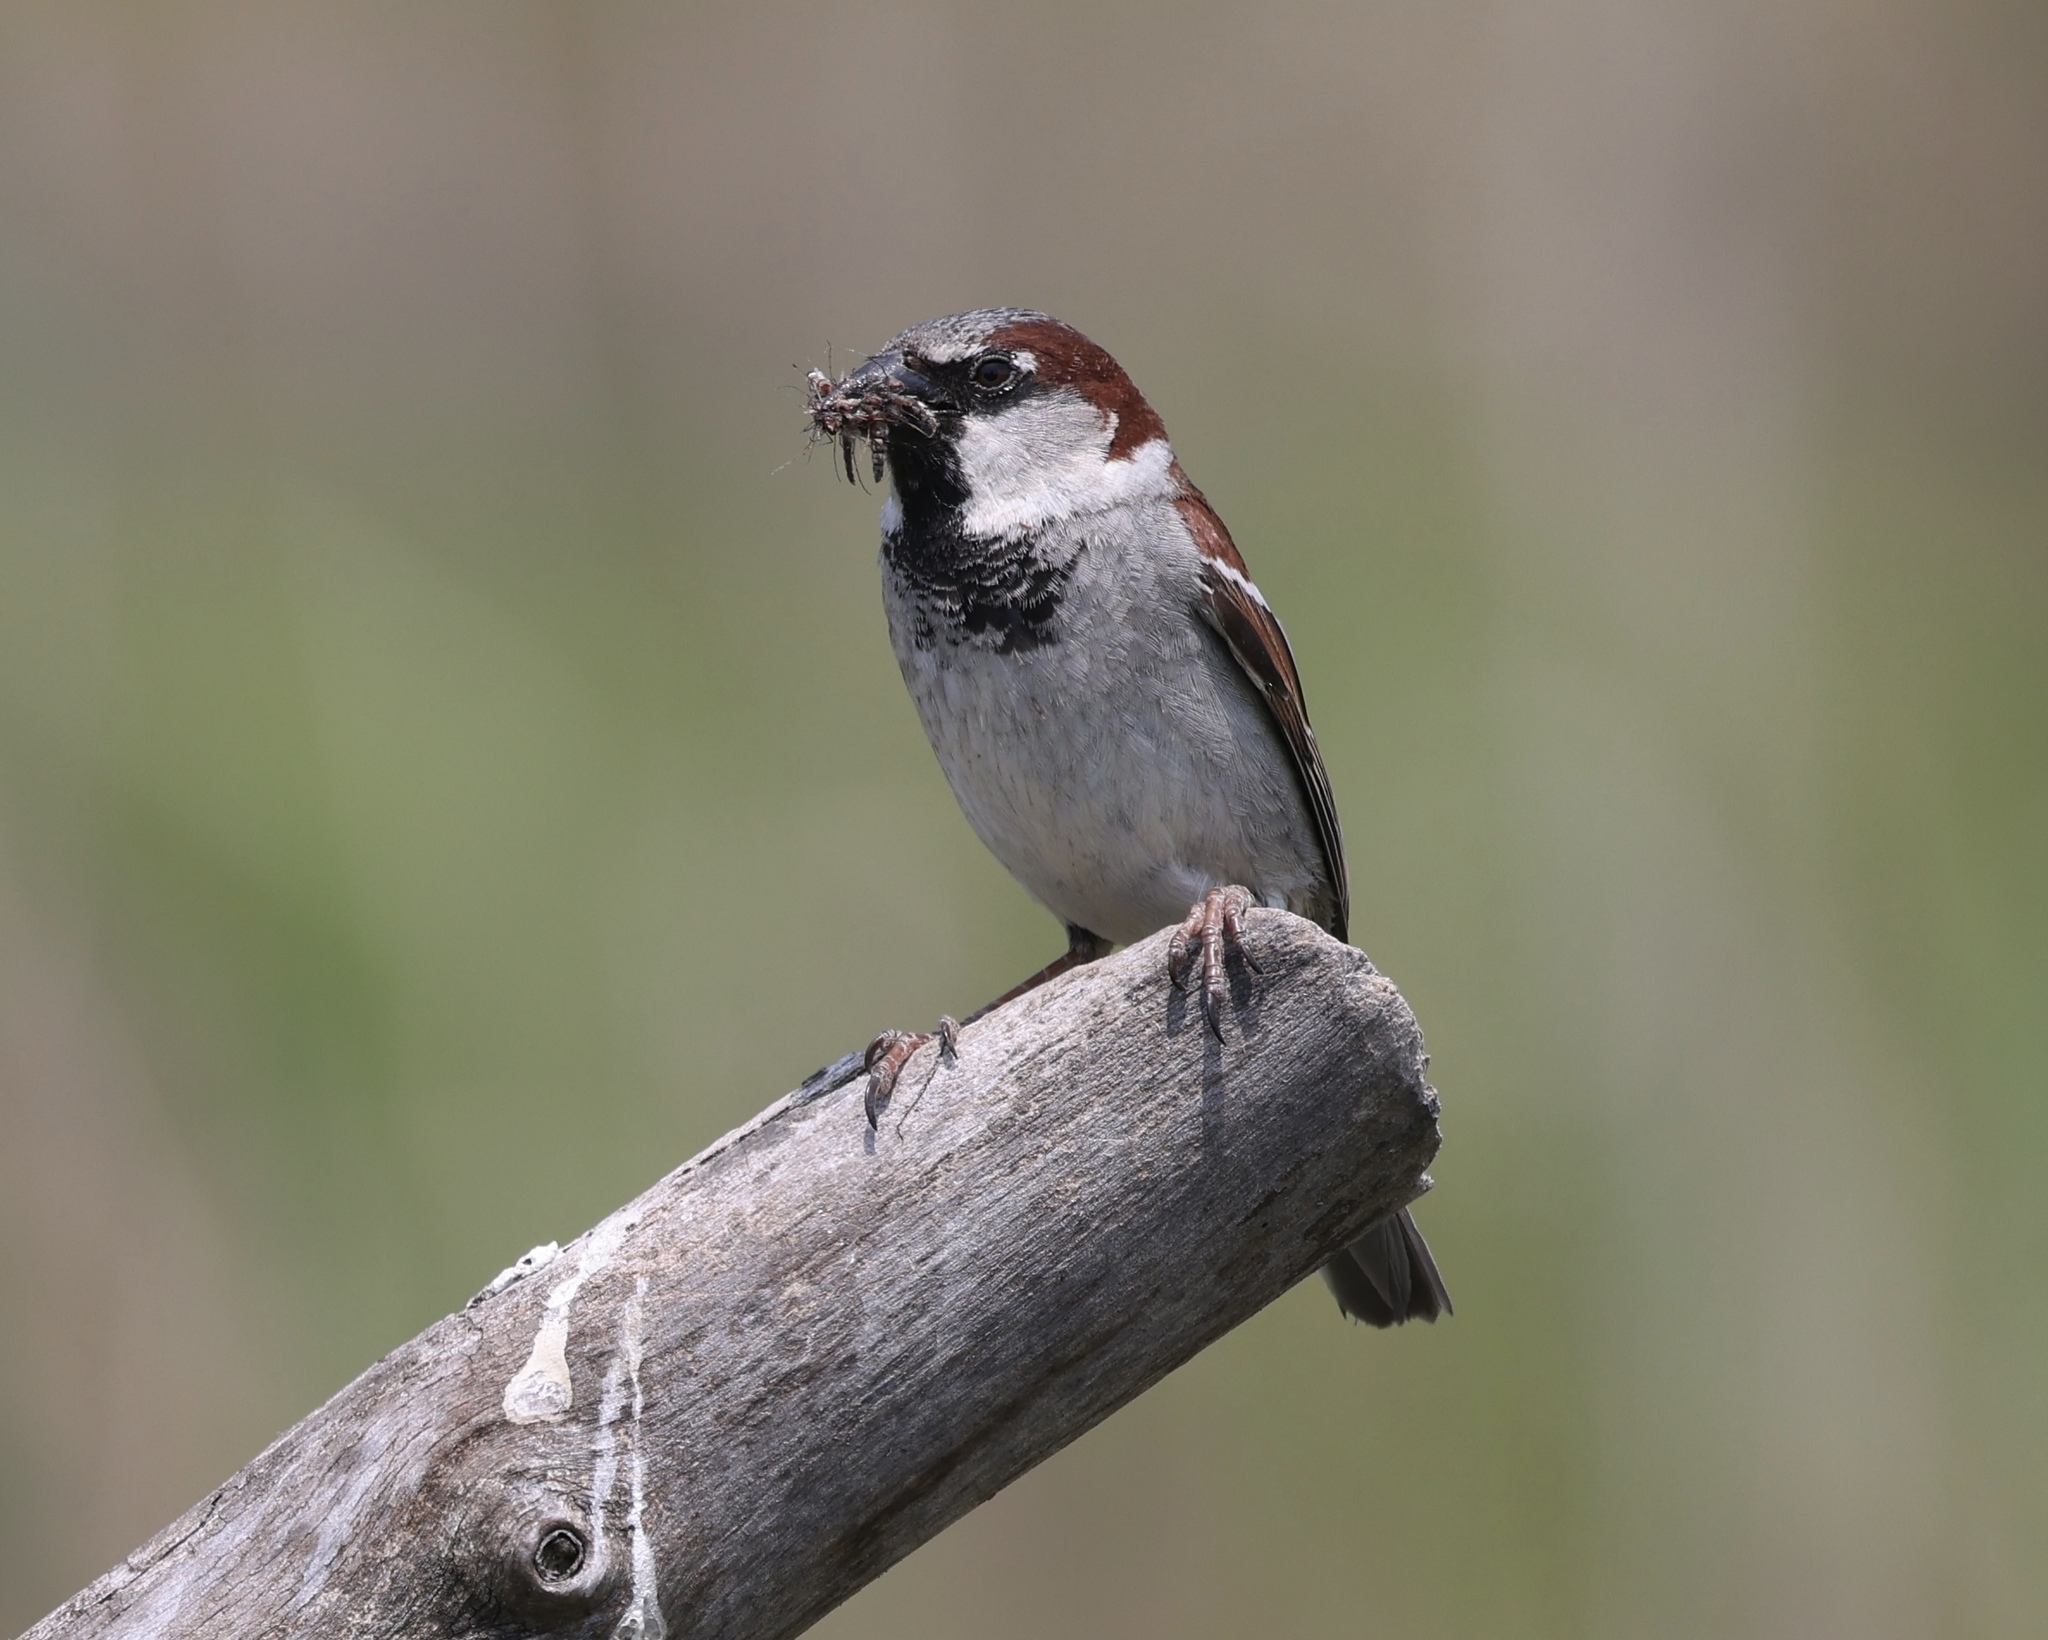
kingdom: Animalia
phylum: Chordata
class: Aves
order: Passeriformes
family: Passeridae
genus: Passer
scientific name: Passer domesticus
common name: House sparrow
